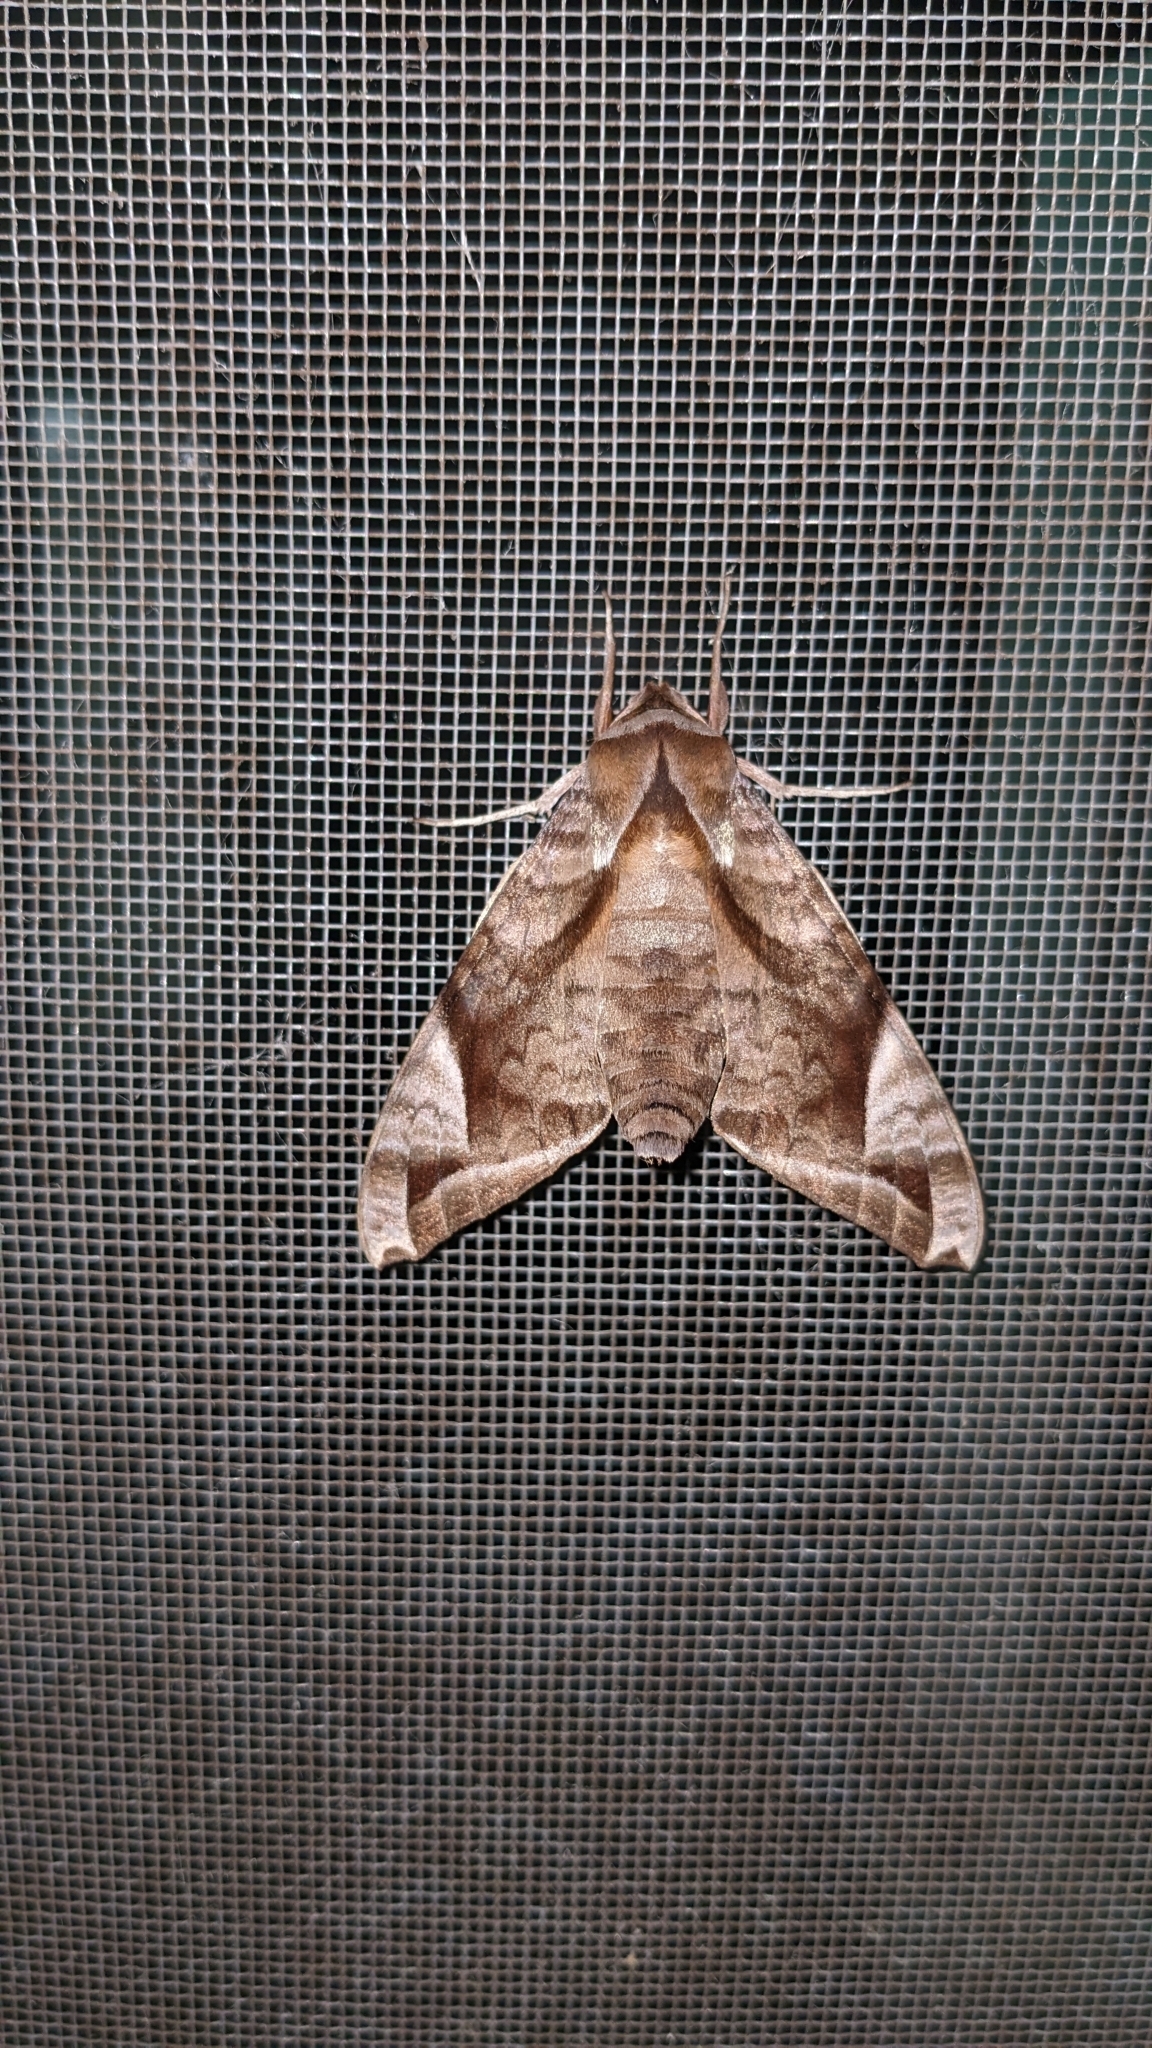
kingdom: Animalia
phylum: Arthropoda
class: Insecta
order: Lepidoptera
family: Sphingidae
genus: Acosmeryx
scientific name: Acosmeryx naga
